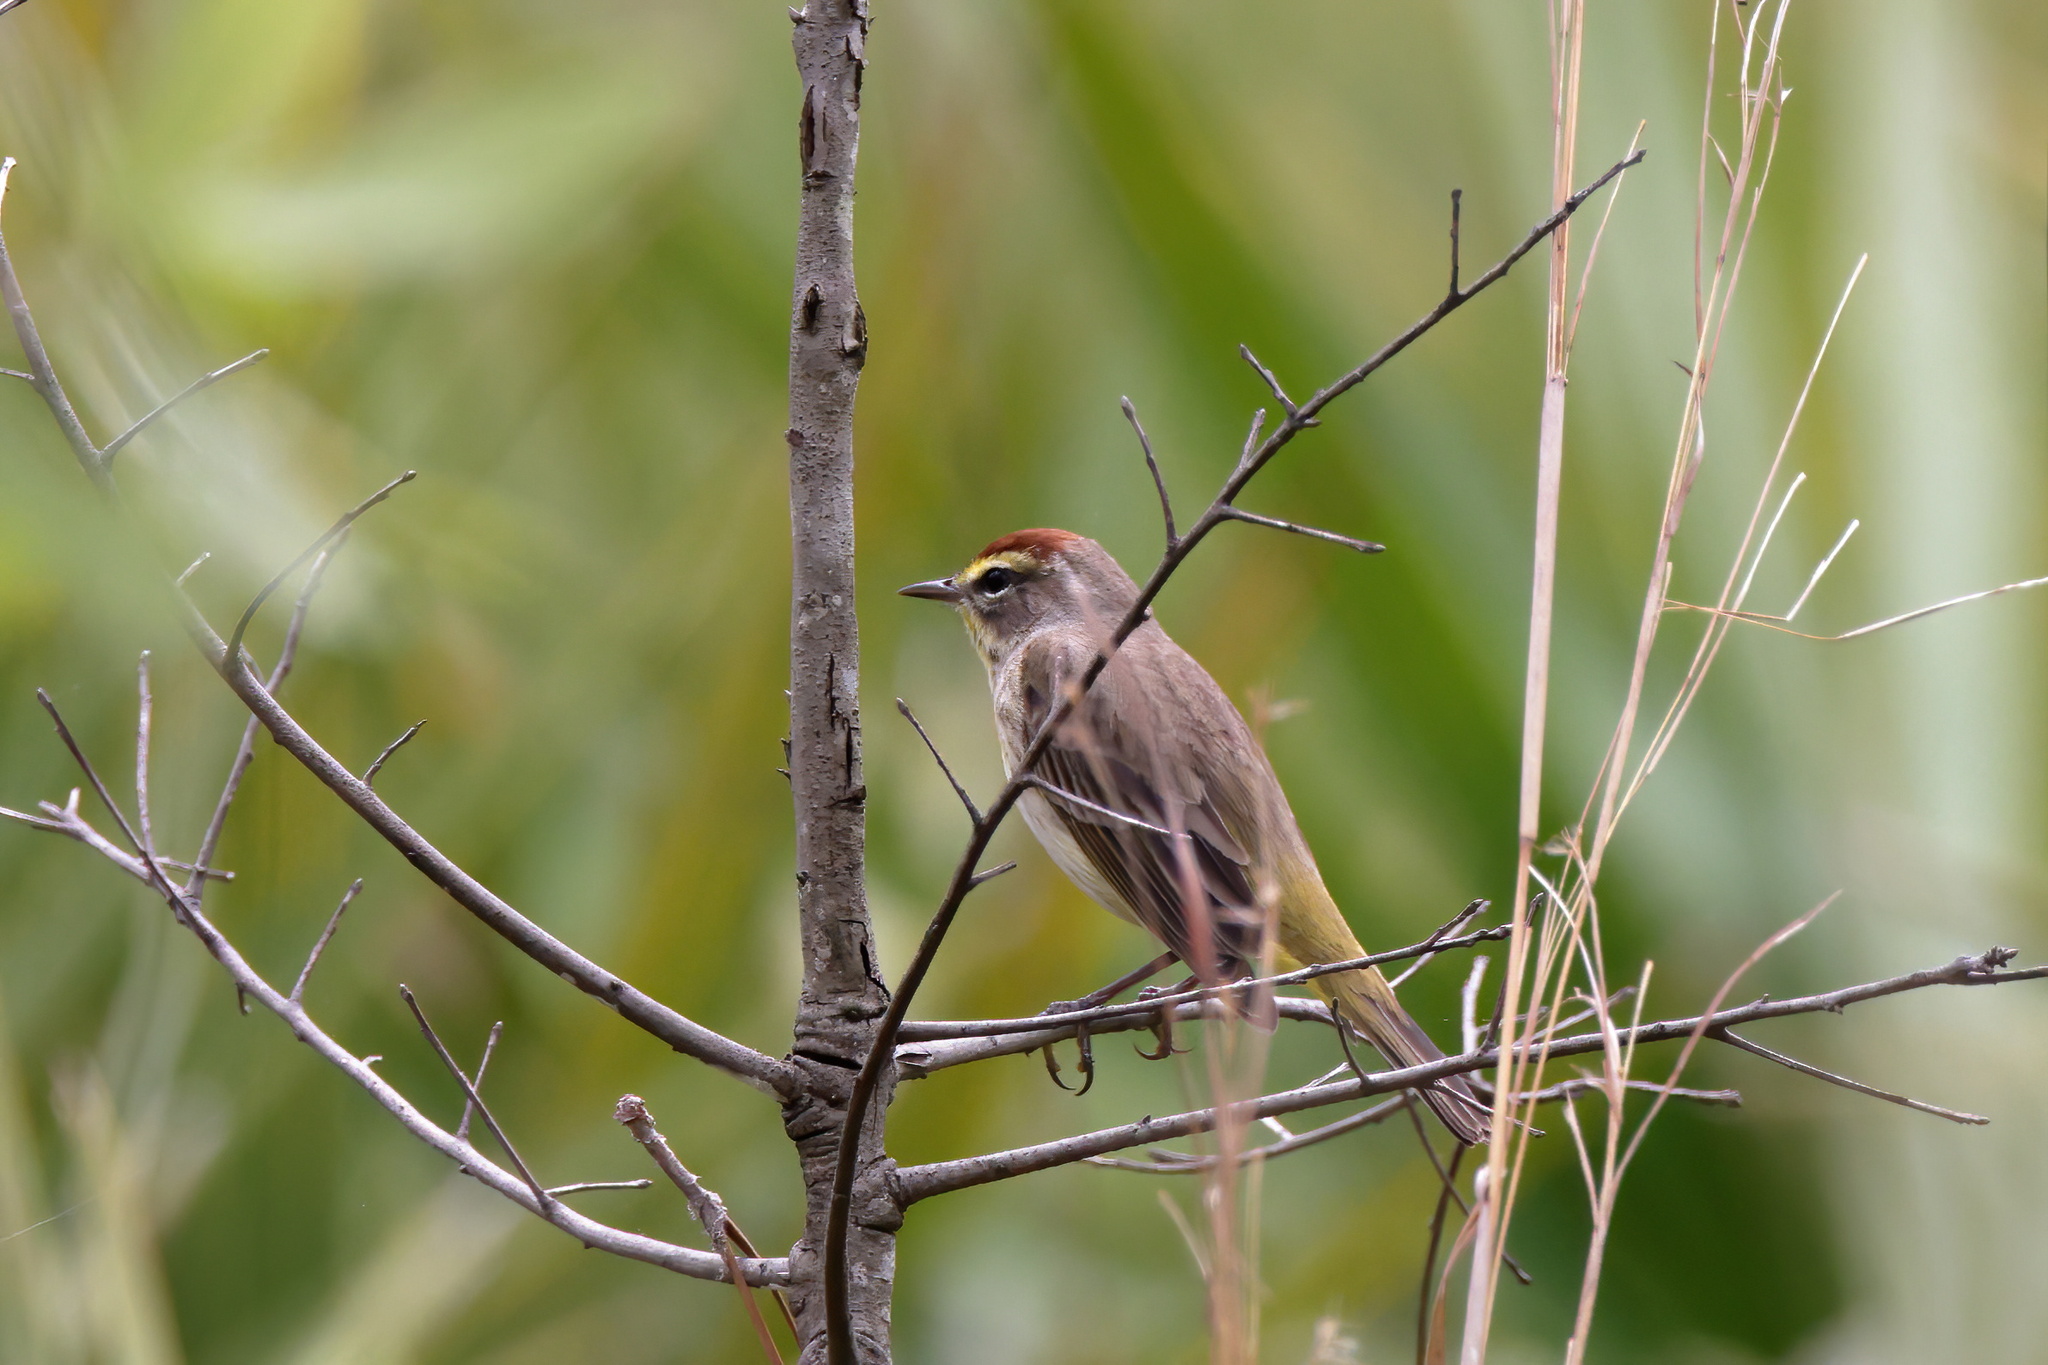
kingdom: Animalia
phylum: Chordata
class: Aves
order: Passeriformes
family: Parulidae
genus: Setophaga
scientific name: Setophaga palmarum
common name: Palm warbler
